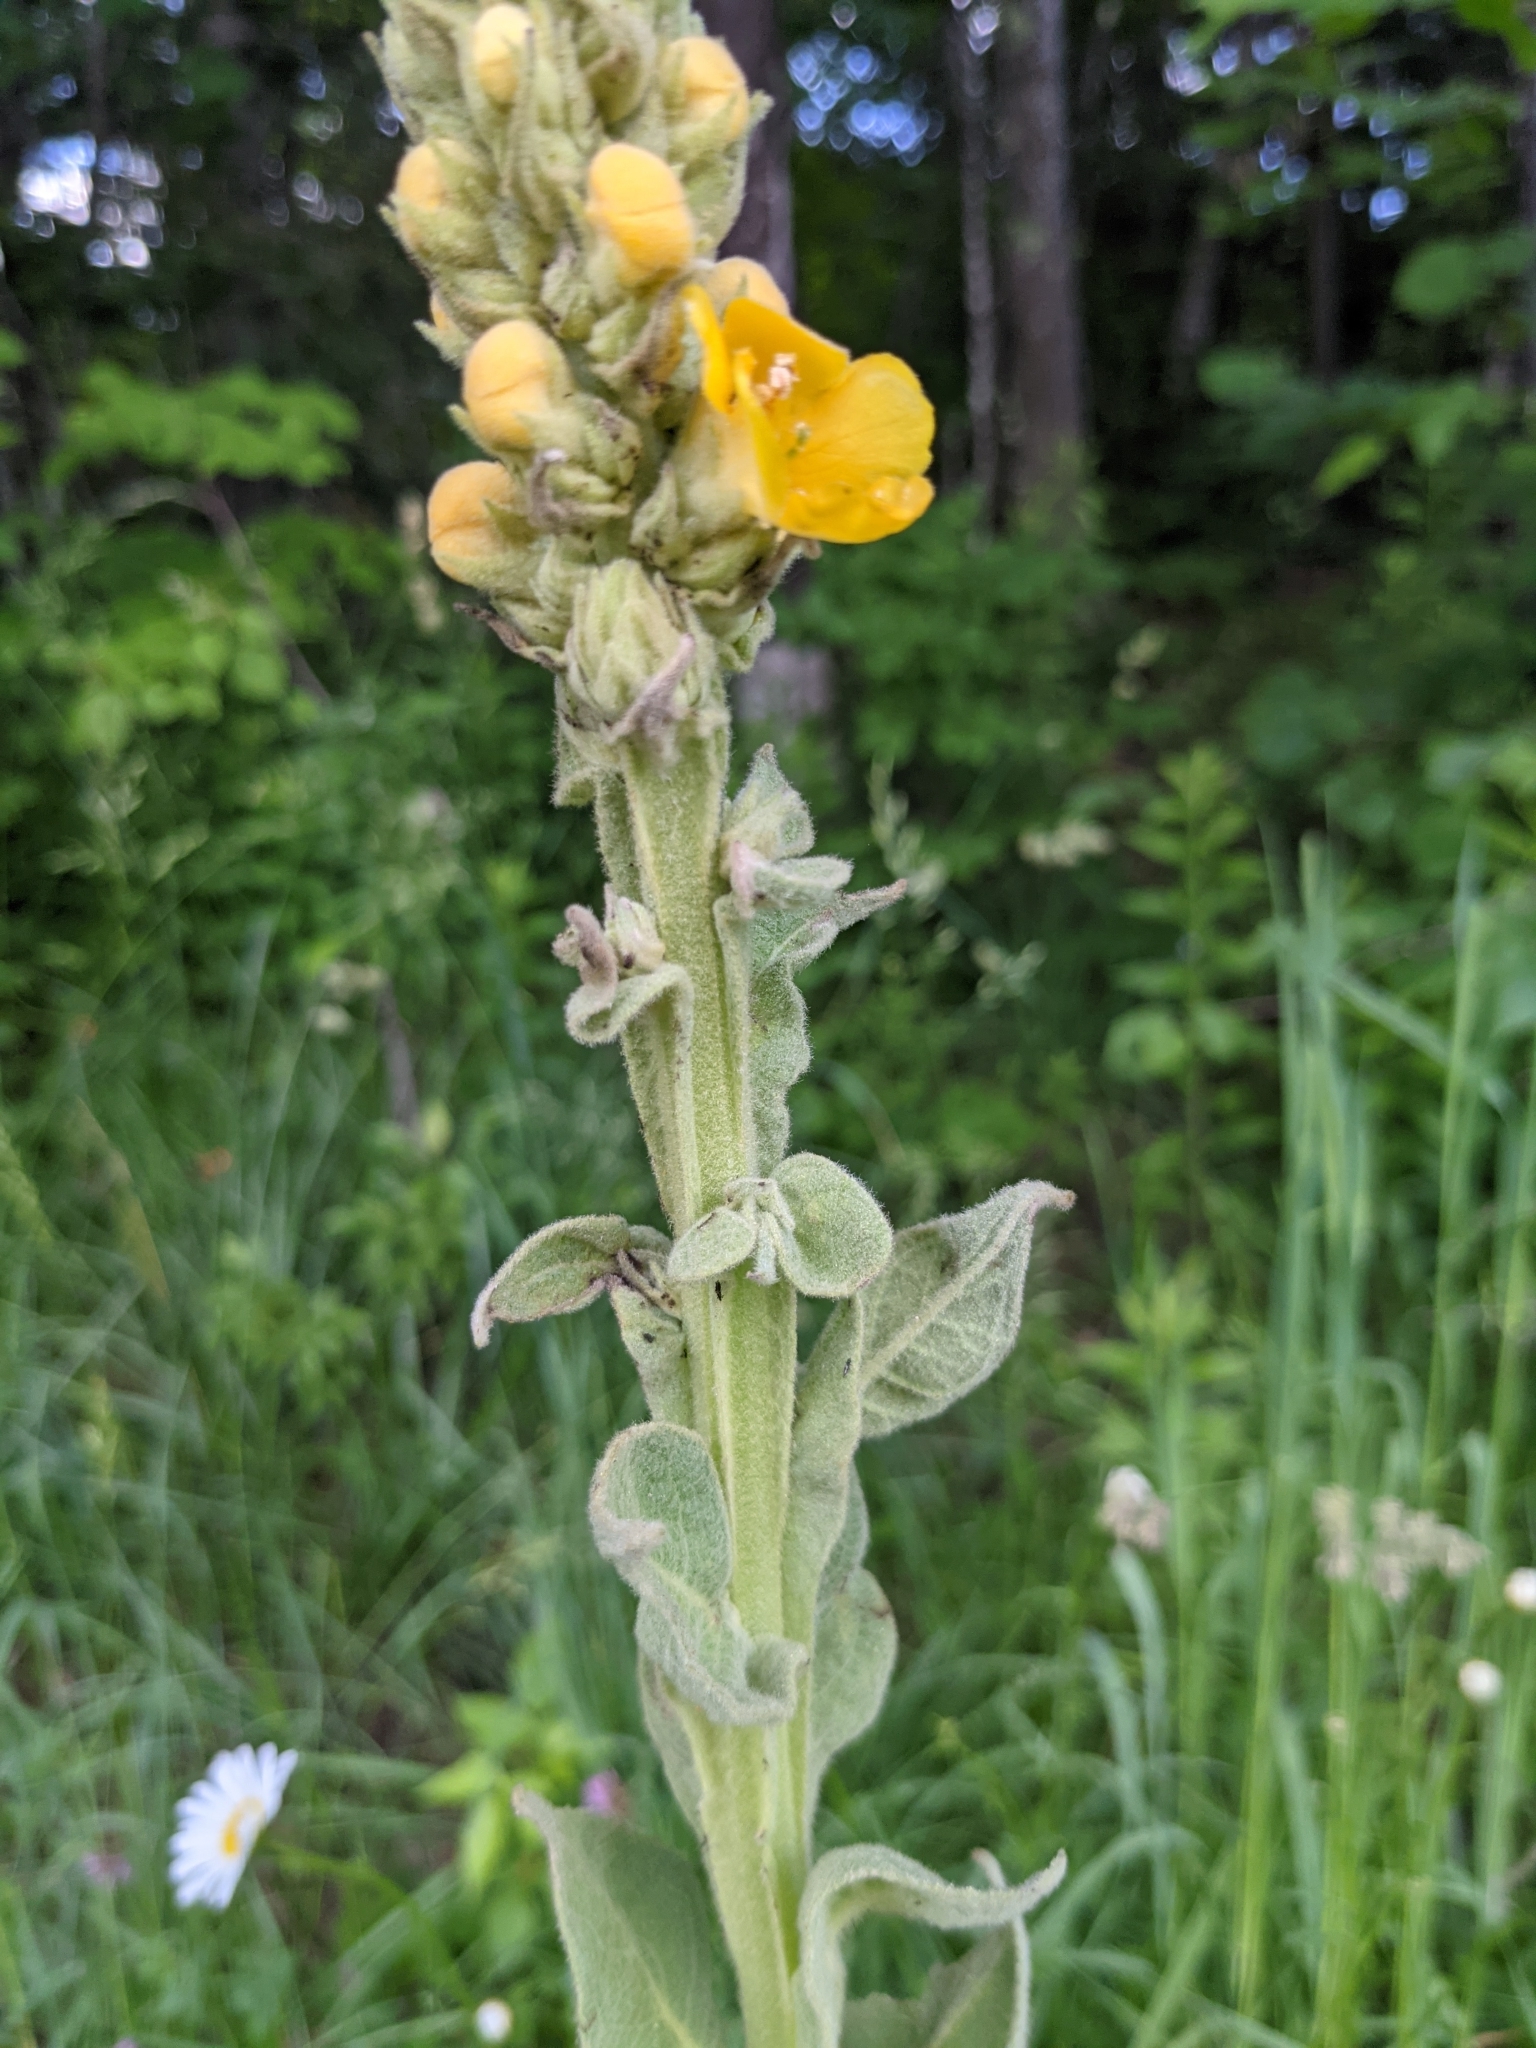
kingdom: Plantae
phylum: Tracheophyta
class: Magnoliopsida
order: Lamiales
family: Scrophulariaceae
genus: Verbascum
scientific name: Verbascum thapsus
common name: Common mullein
